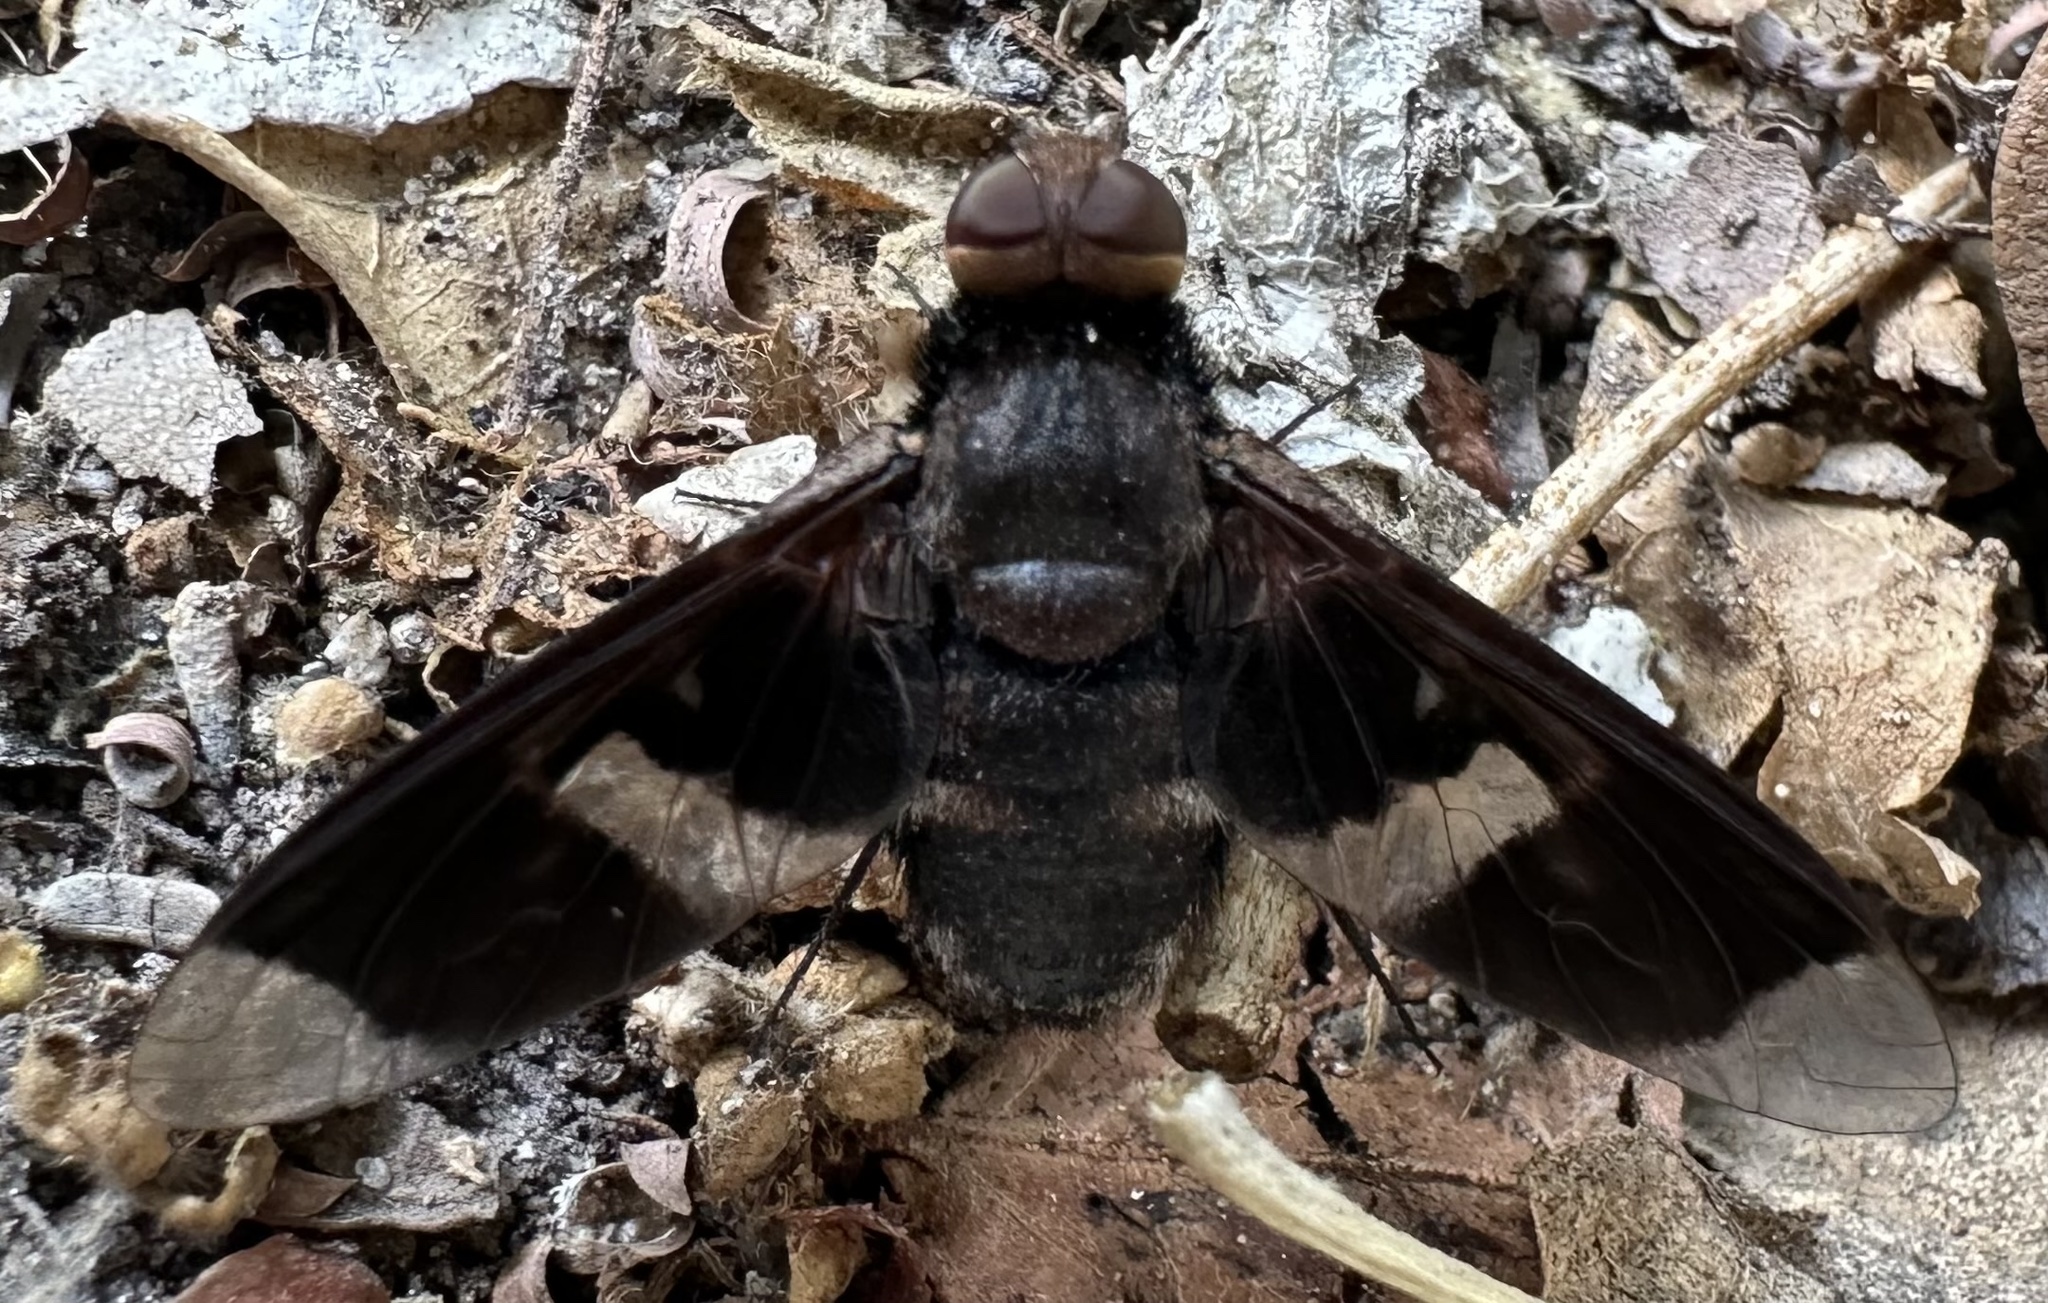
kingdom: Animalia
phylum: Arthropoda
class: Insecta
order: Diptera
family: Bombyliidae
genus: Exoprosopa
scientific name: Exoprosopa praefica
